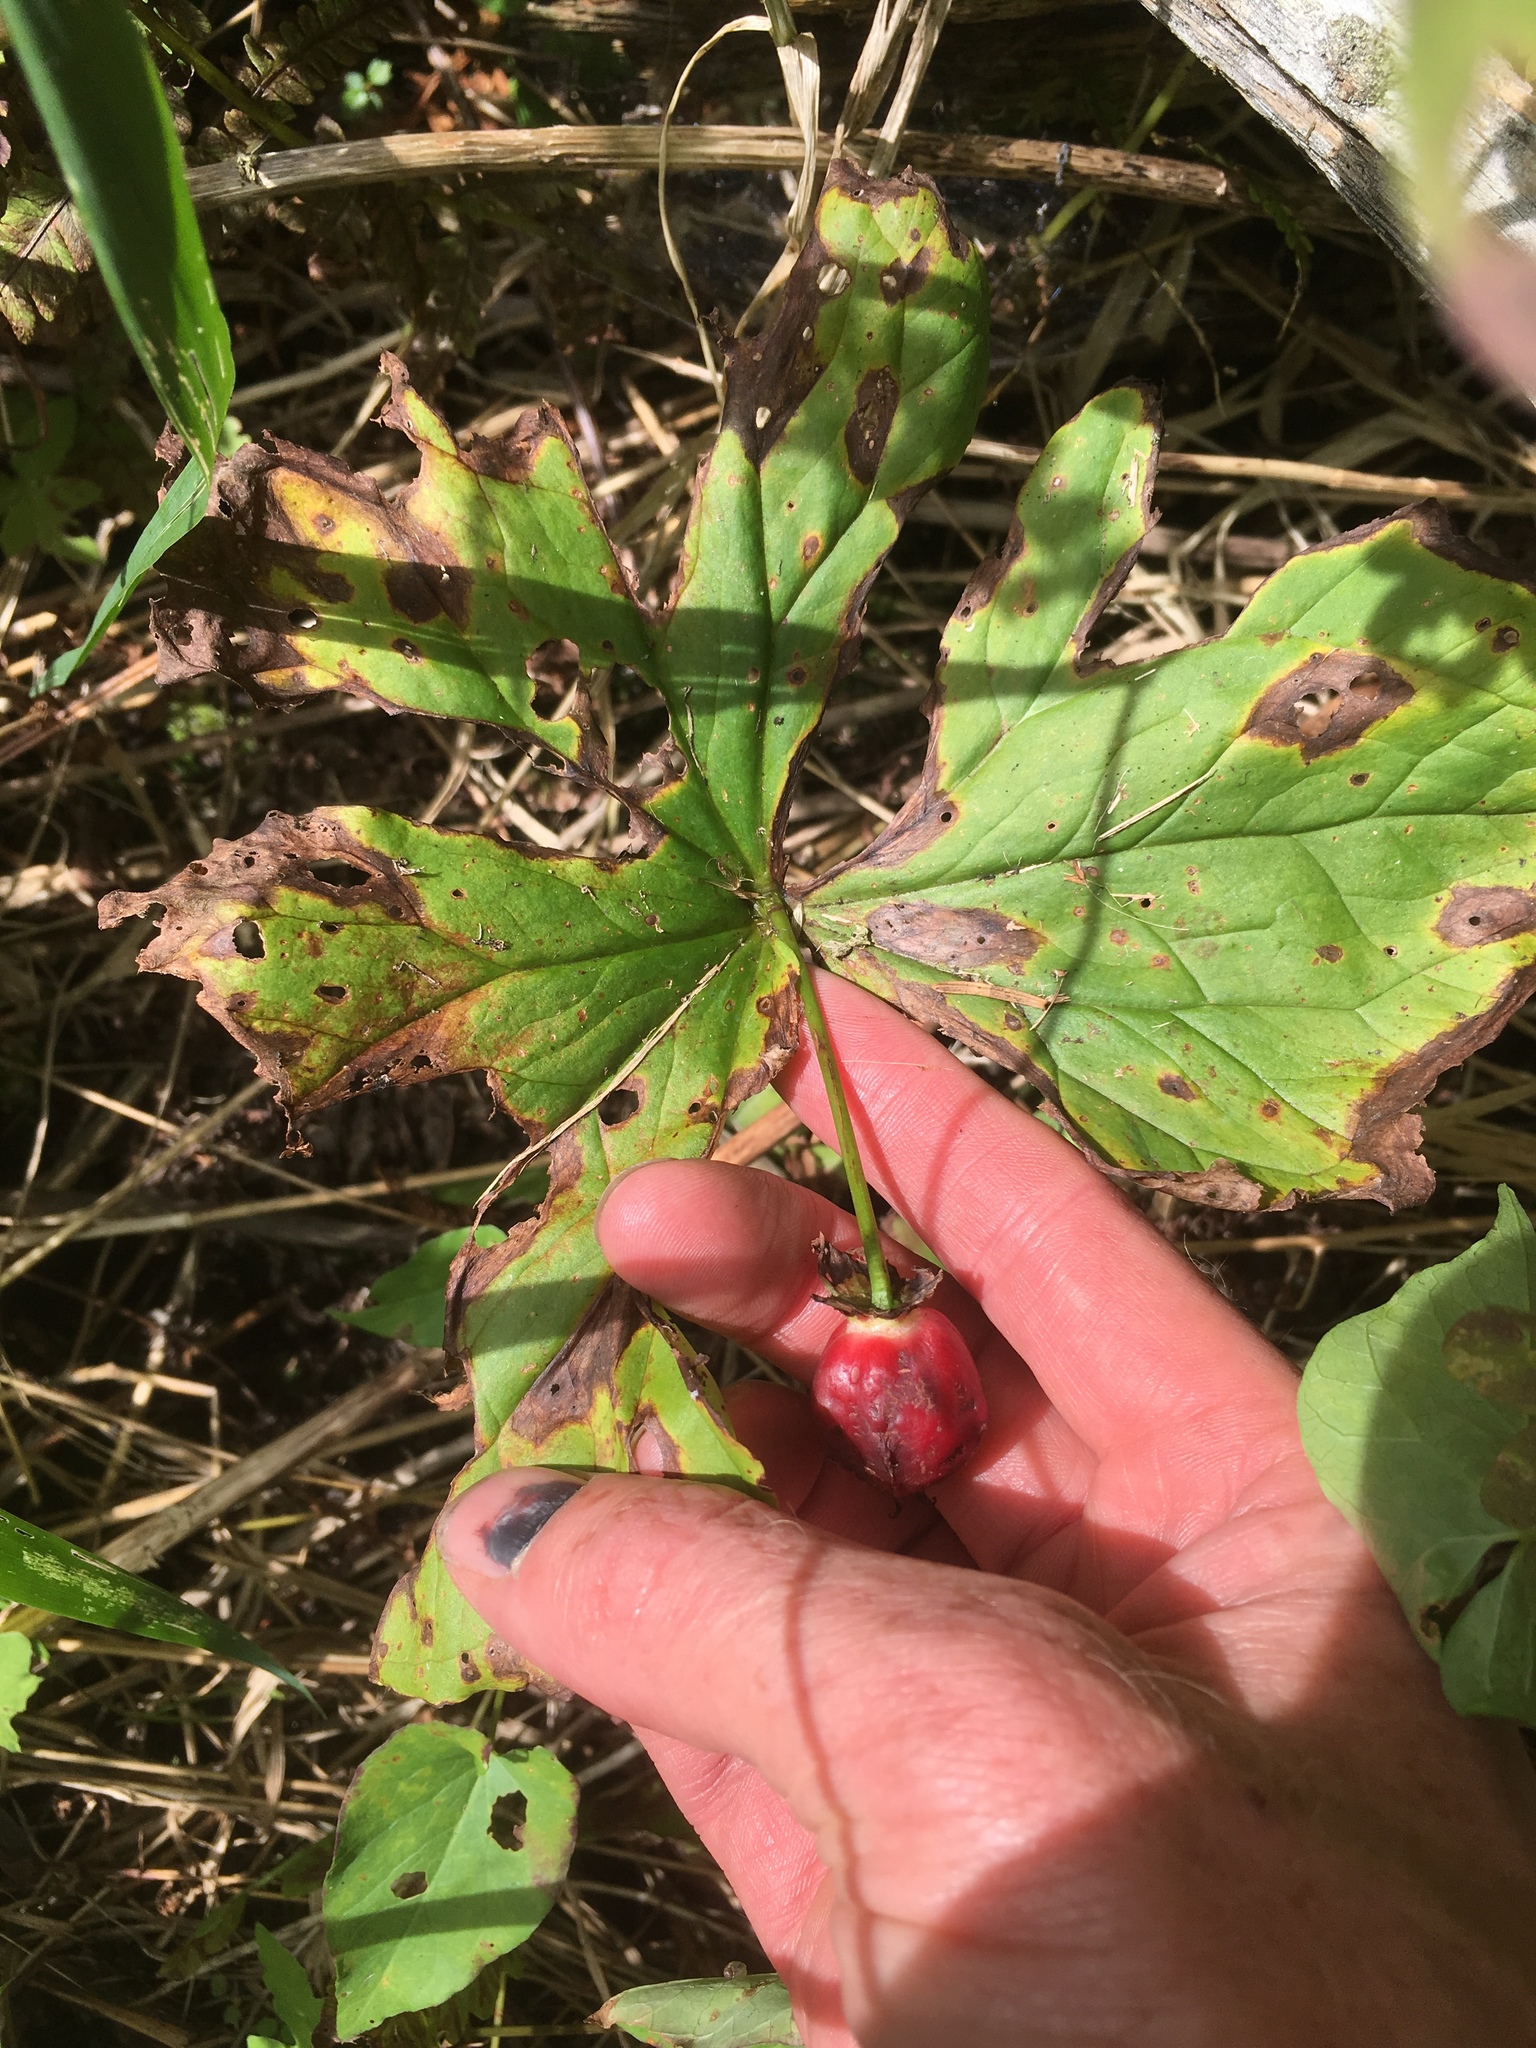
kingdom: Plantae
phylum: Tracheophyta
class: Liliopsida
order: Liliales
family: Melanthiaceae
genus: Trillium
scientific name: Trillium erectum
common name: Purple trillium
